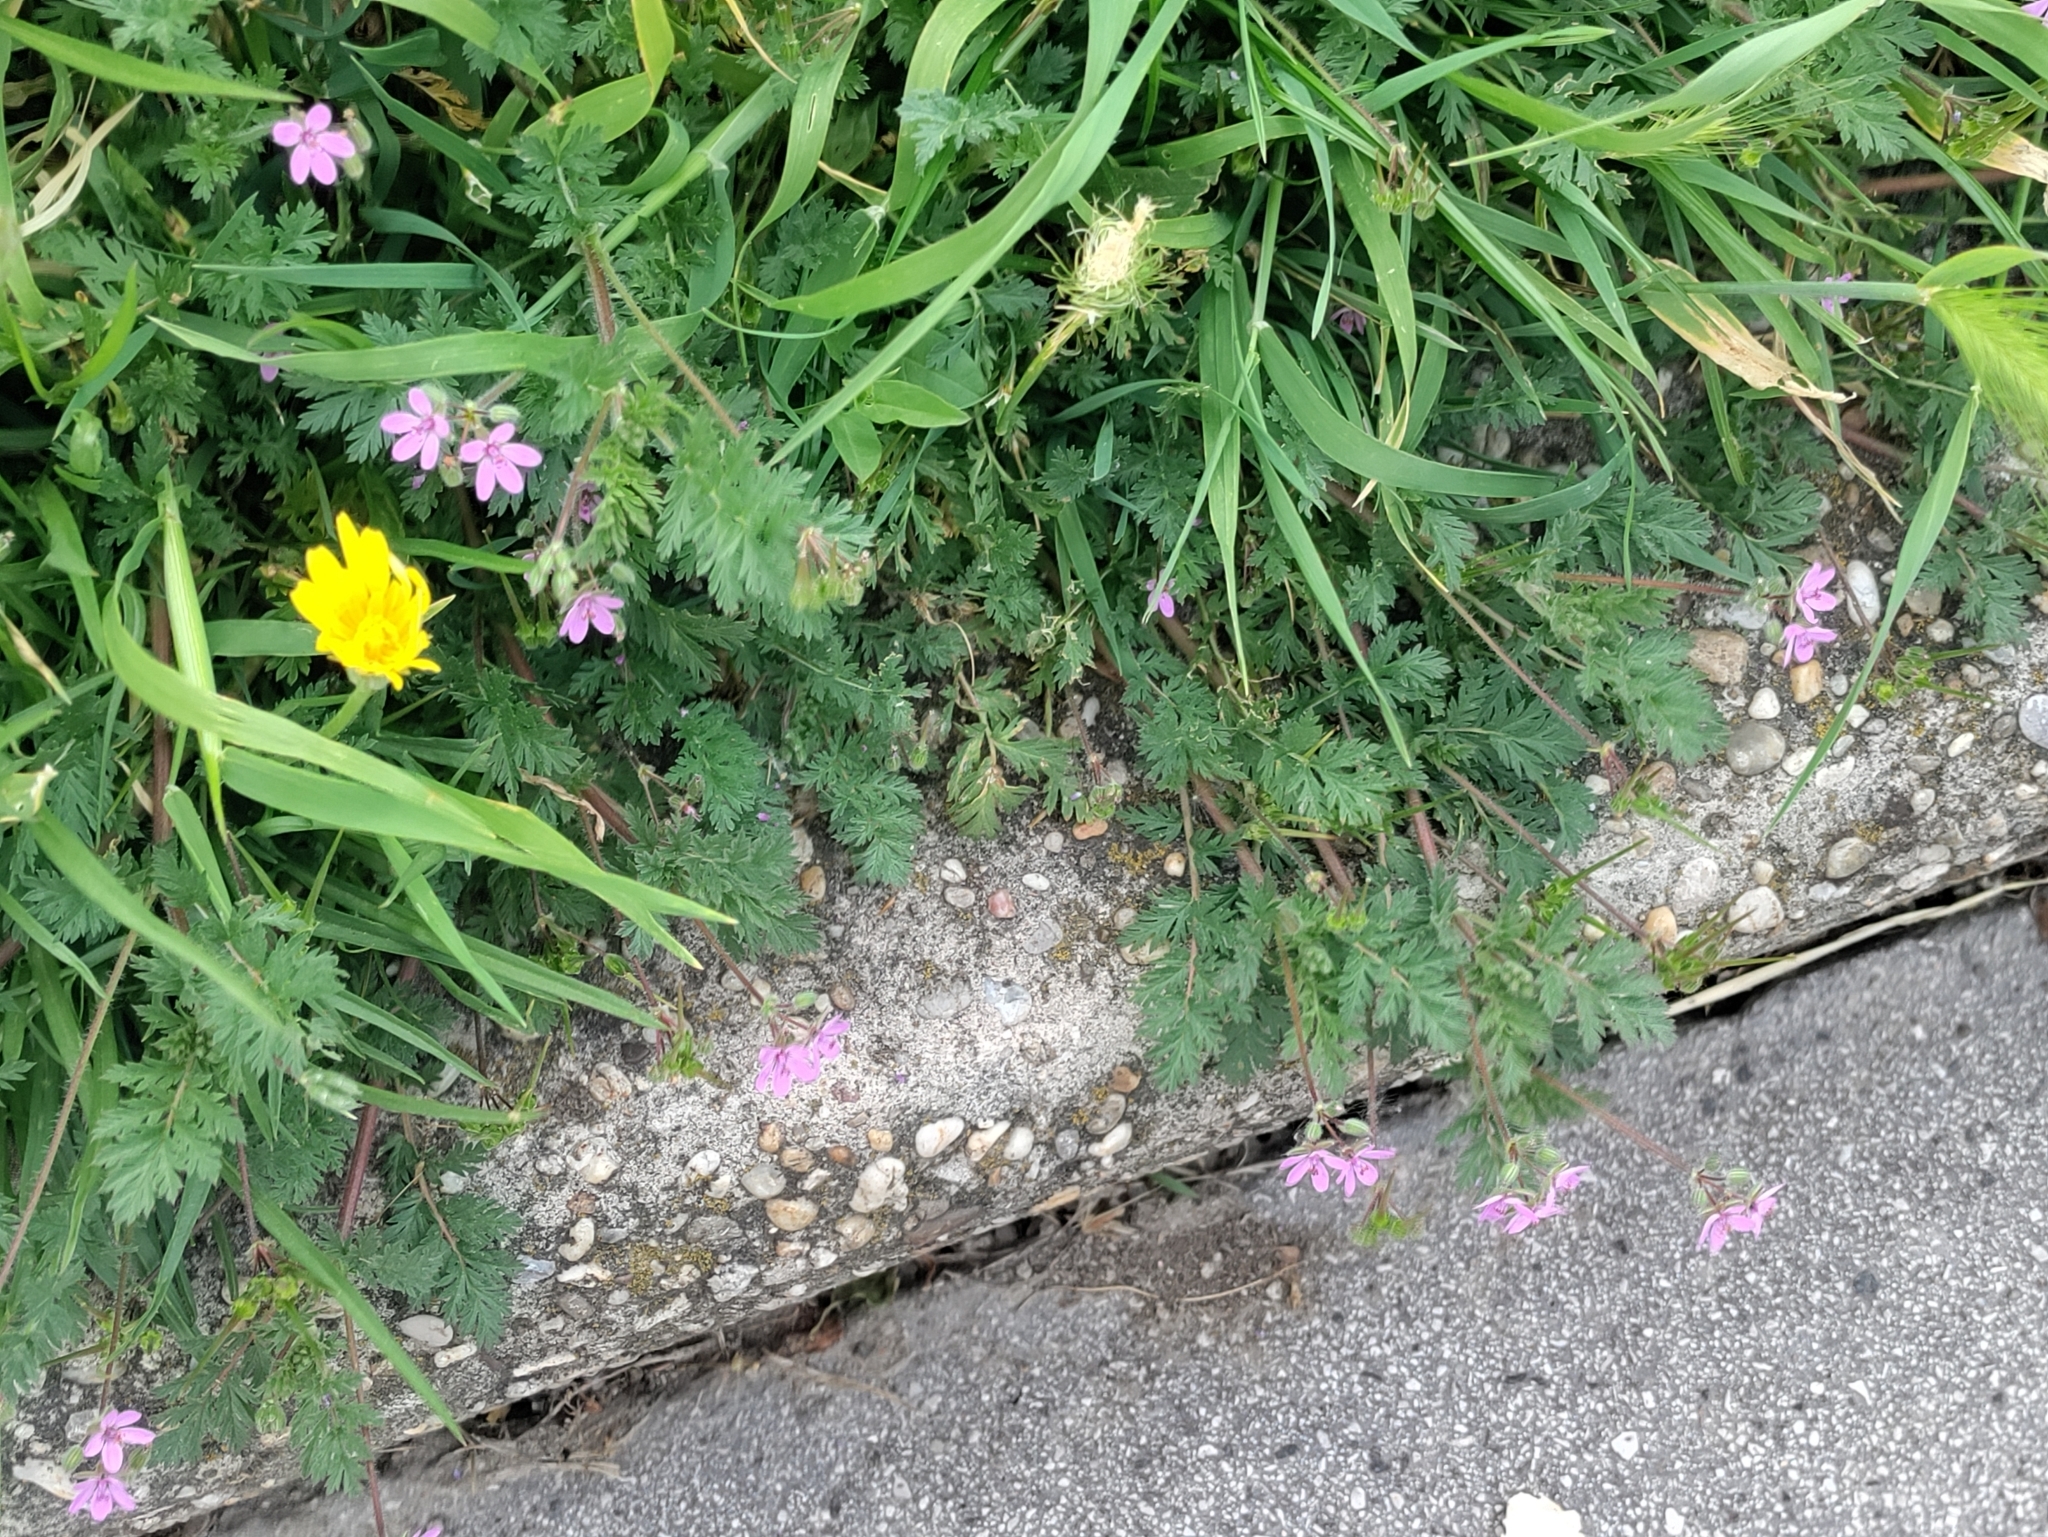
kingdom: Plantae
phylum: Tracheophyta
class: Magnoliopsida
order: Geraniales
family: Geraniaceae
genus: Erodium
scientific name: Erodium cicutarium
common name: Common stork's-bill
